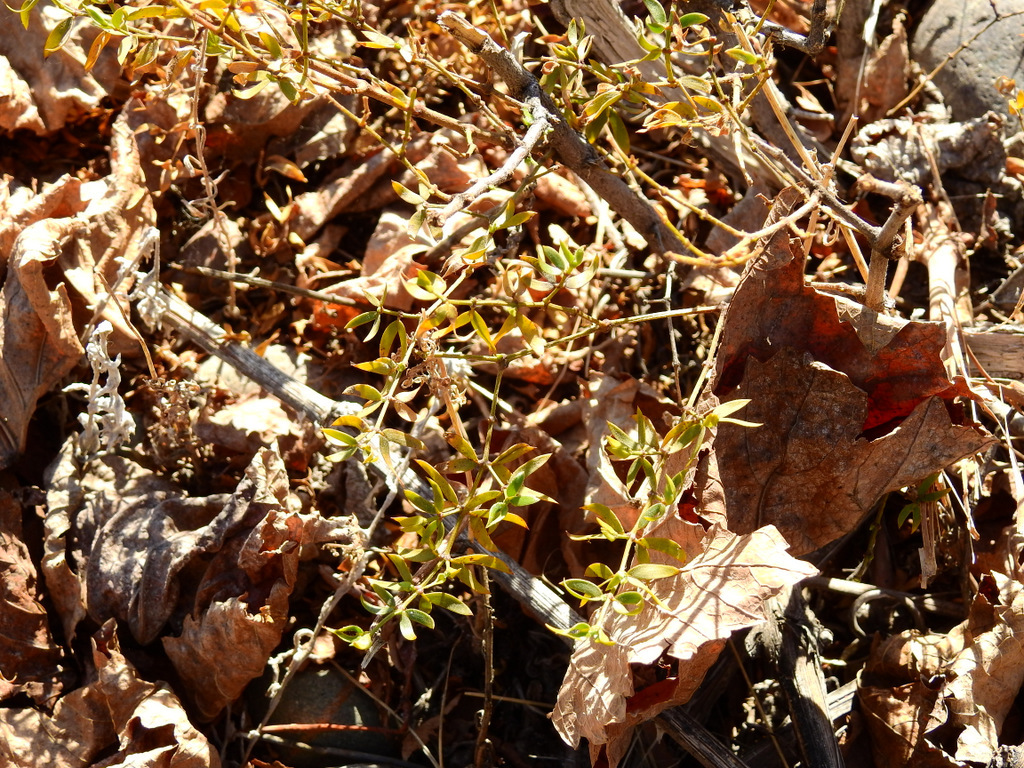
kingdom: Plantae
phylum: Tracheophyta
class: Magnoliopsida
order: Zygophyllales
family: Zygophyllaceae
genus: Larrea
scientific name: Larrea divaricata
